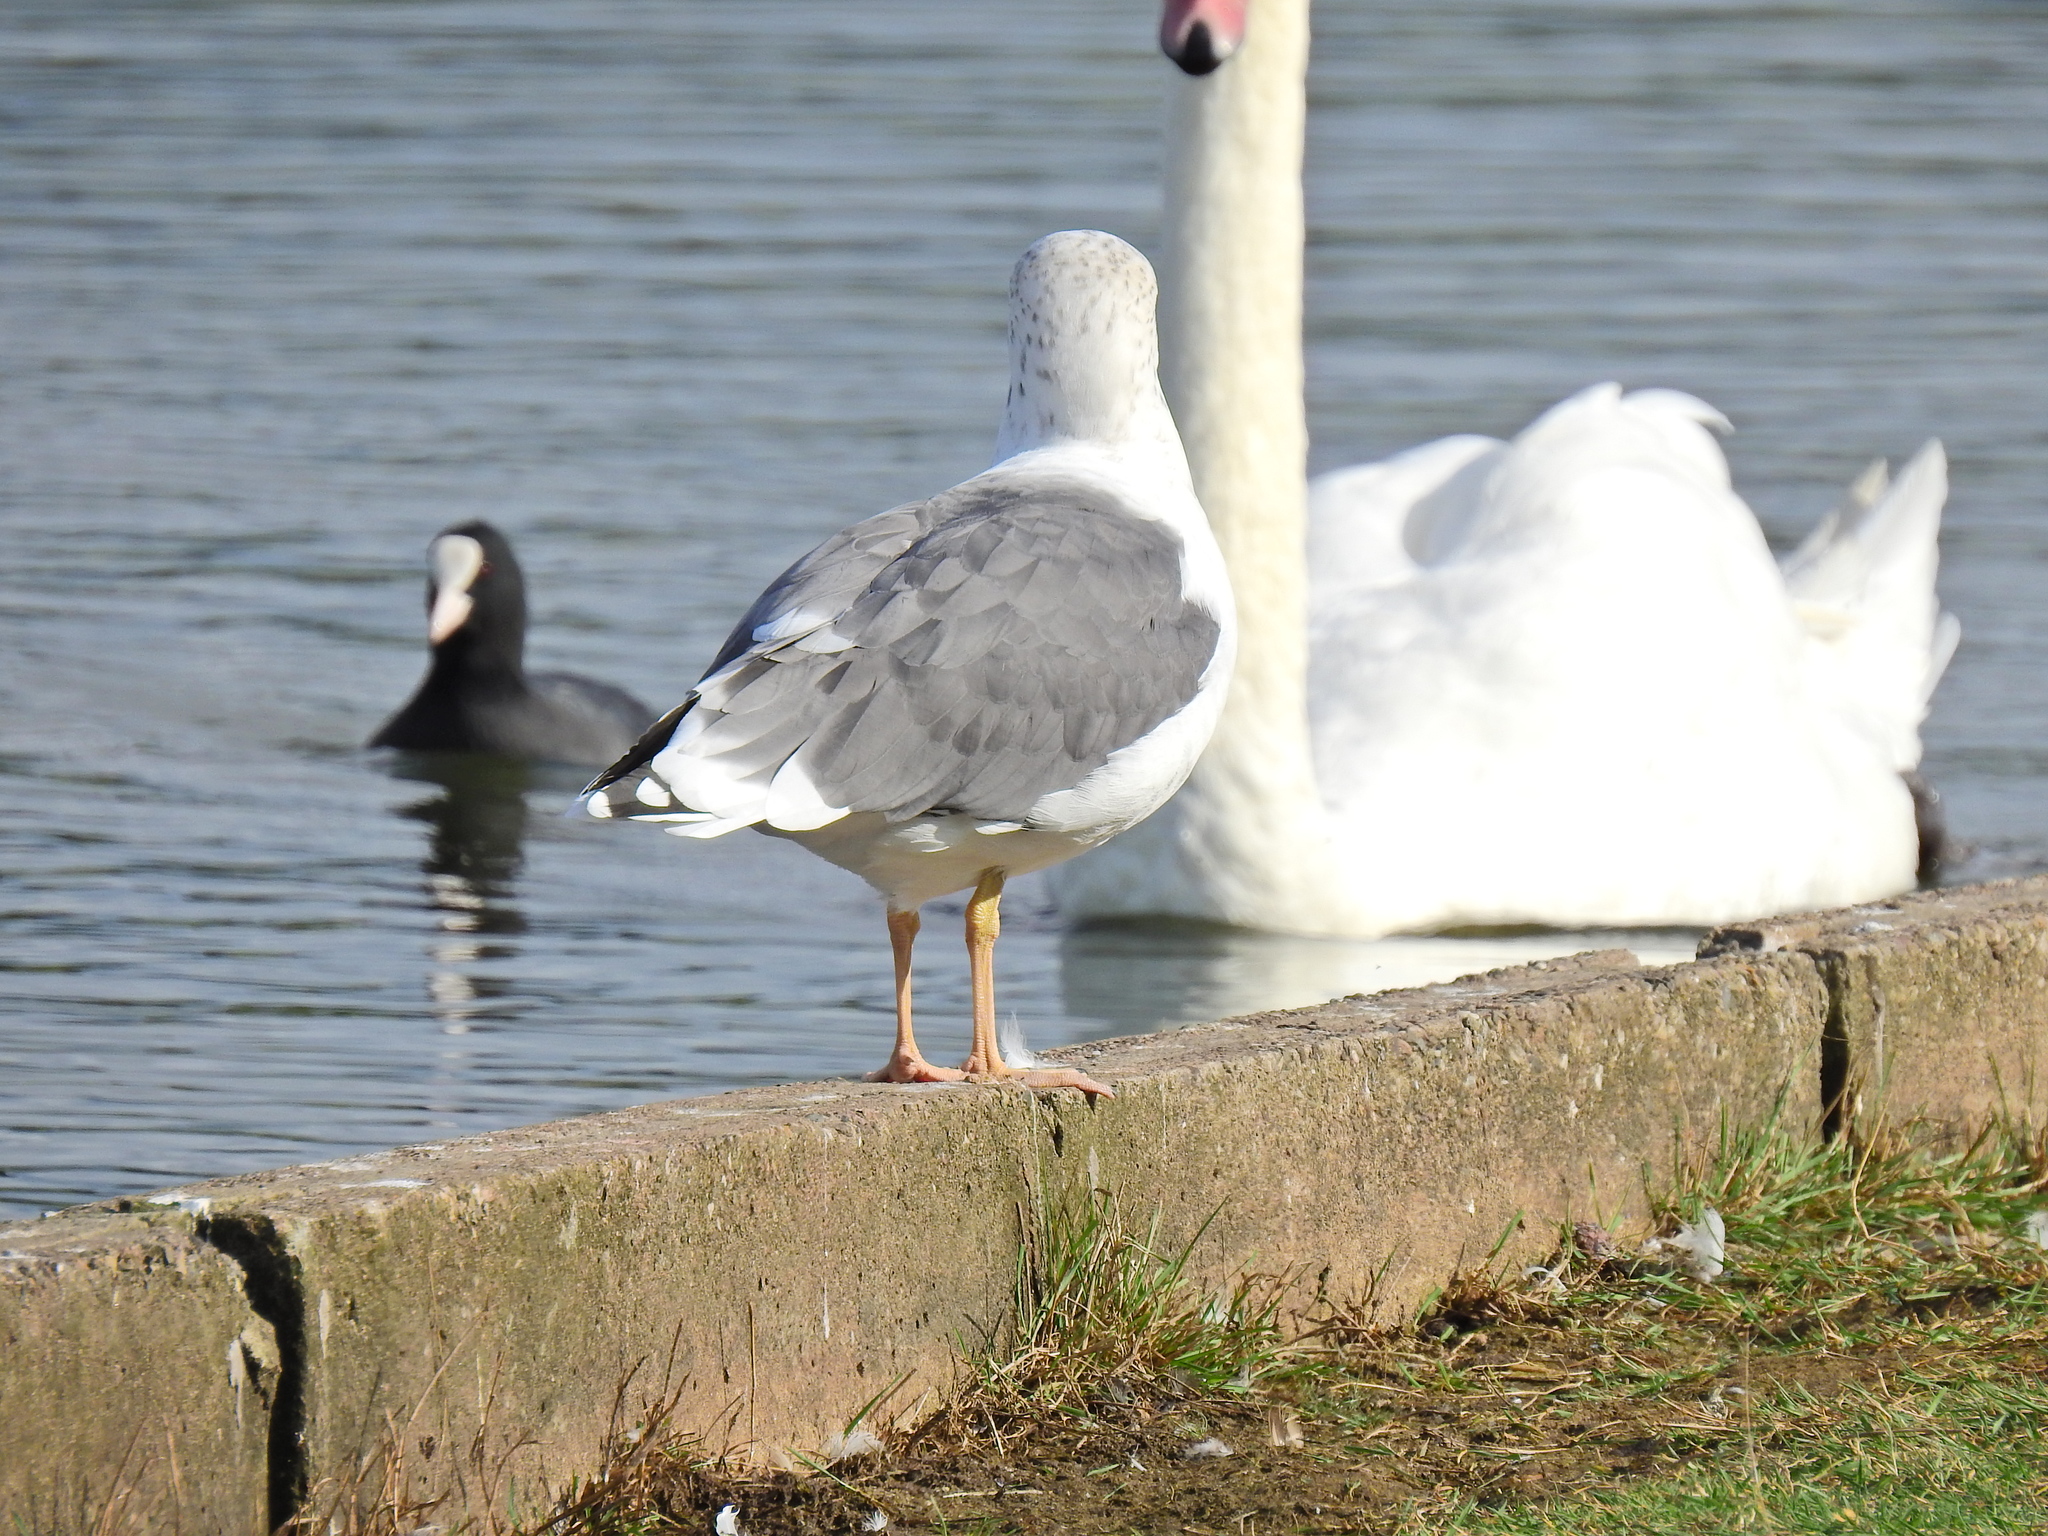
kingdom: Animalia
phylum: Chordata
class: Aves
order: Charadriiformes
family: Laridae
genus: Larus
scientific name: Larus fuscus
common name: Lesser black-backed gull
